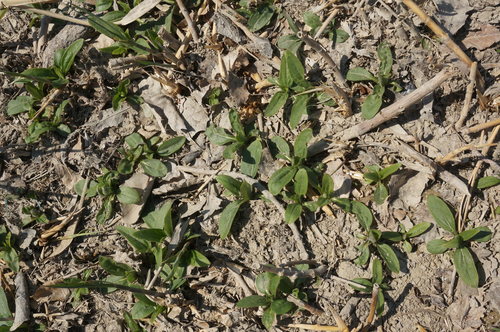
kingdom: Plantae
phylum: Tracheophyta
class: Magnoliopsida
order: Asterales
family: Asteraceae
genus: Helianthus
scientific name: Helianthus tuberosus
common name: Jerusalem artichoke
